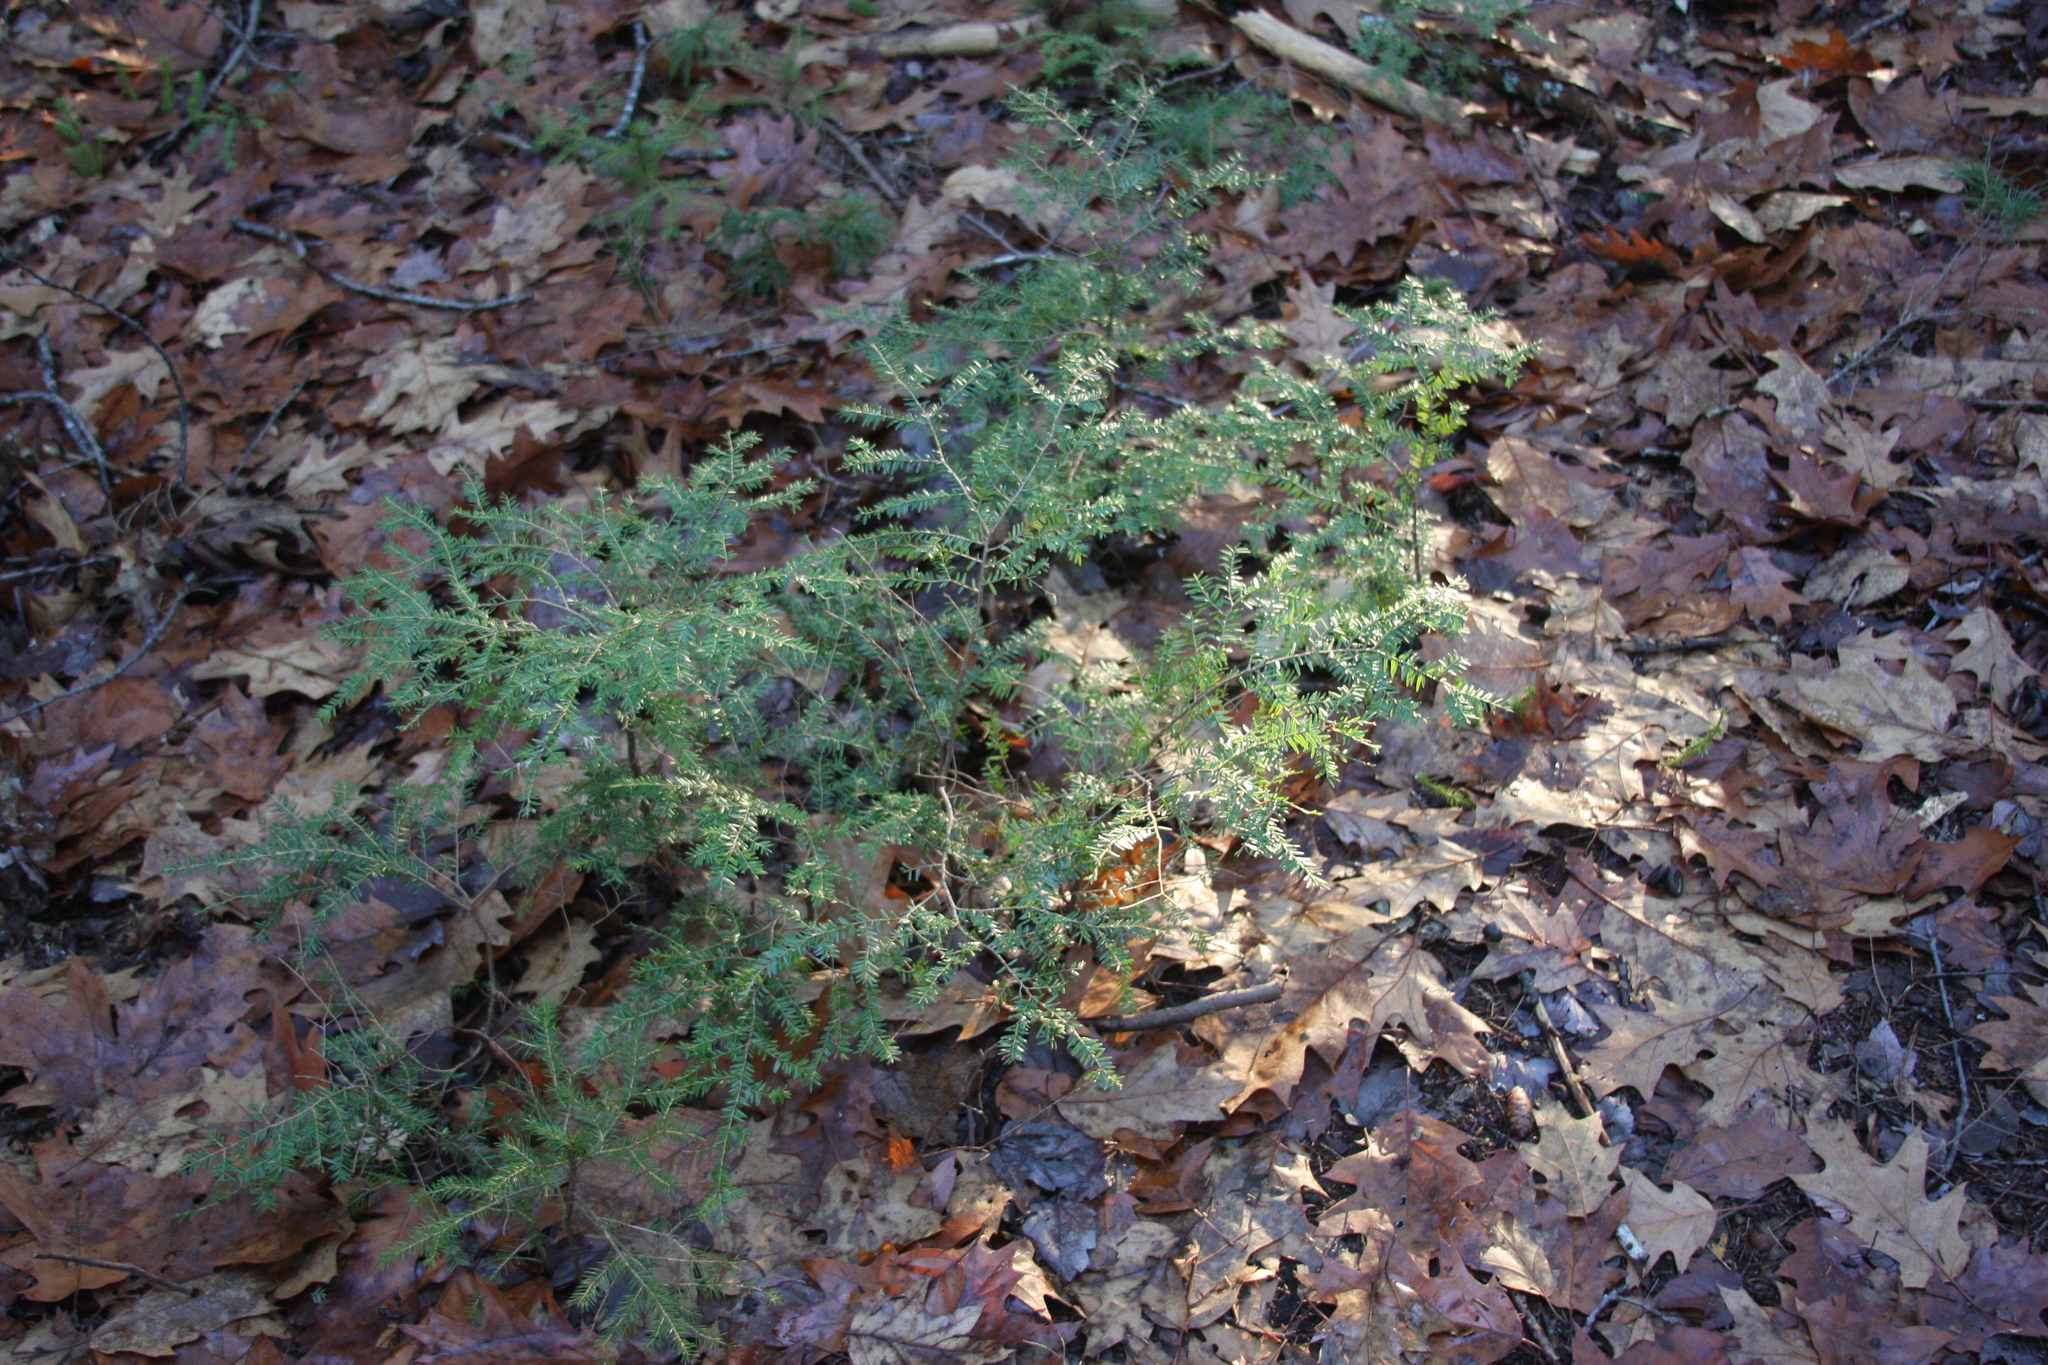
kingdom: Plantae
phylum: Tracheophyta
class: Pinopsida
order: Pinales
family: Pinaceae
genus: Tsuga
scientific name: Tsuga canadensis
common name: Eastern hemlock
